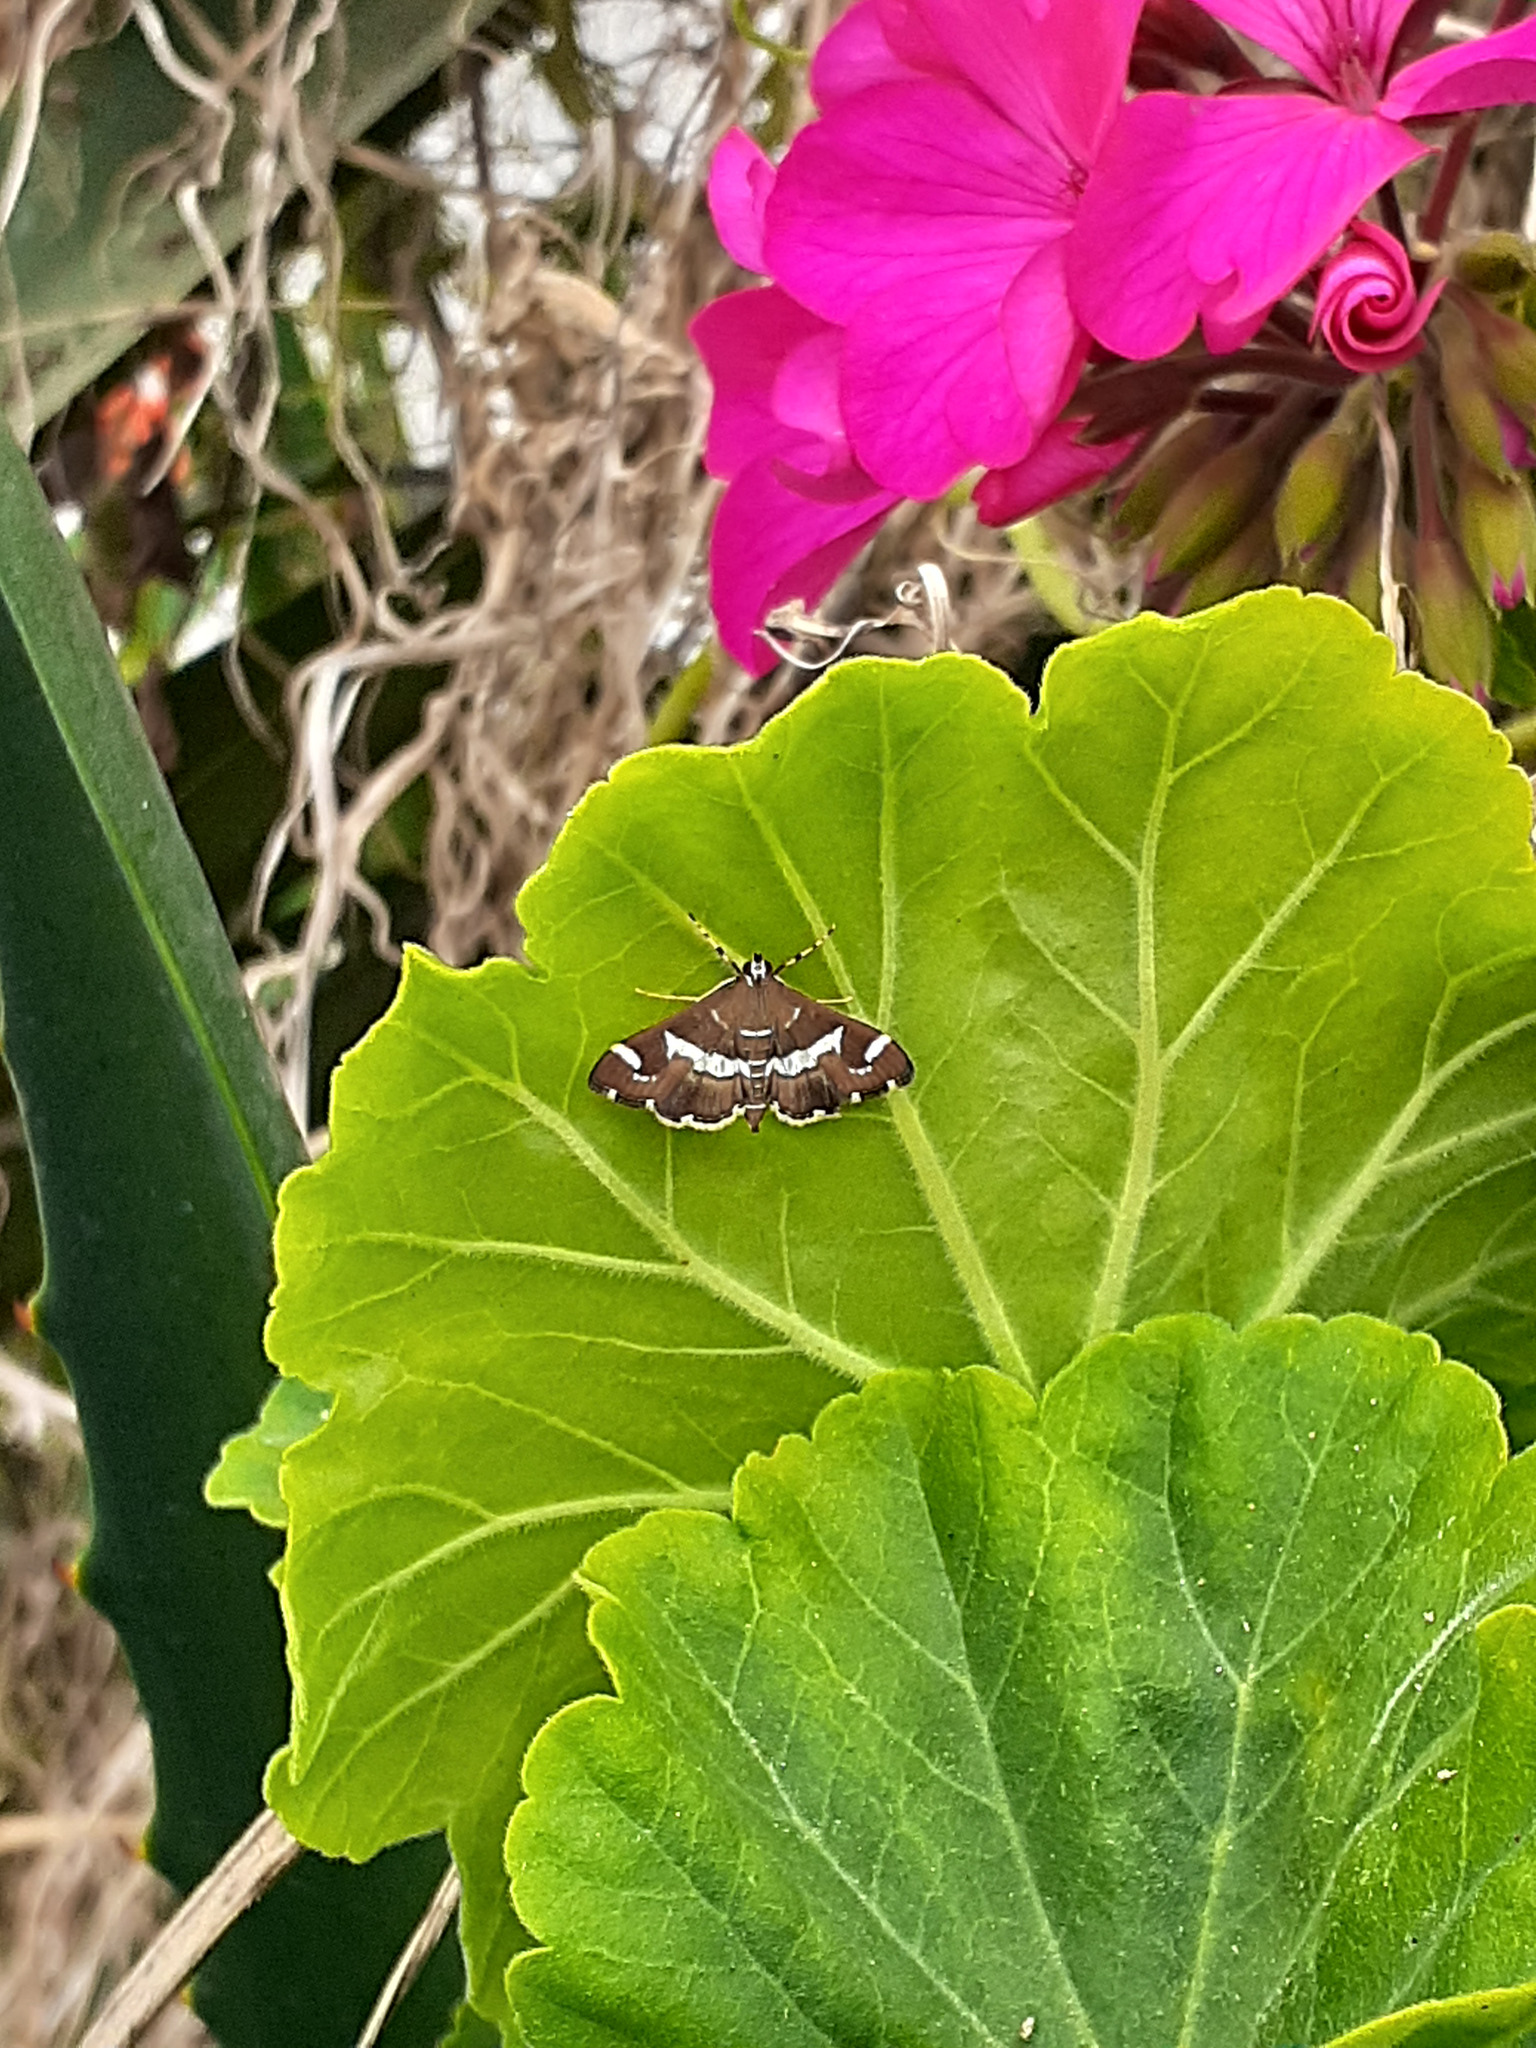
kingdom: Animalia
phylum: Arthropoda
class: Insecta
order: Lepidoptera
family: Crambidae
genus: Spoladea
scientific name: Spoladea recurvalis
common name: Beet webworm moth
